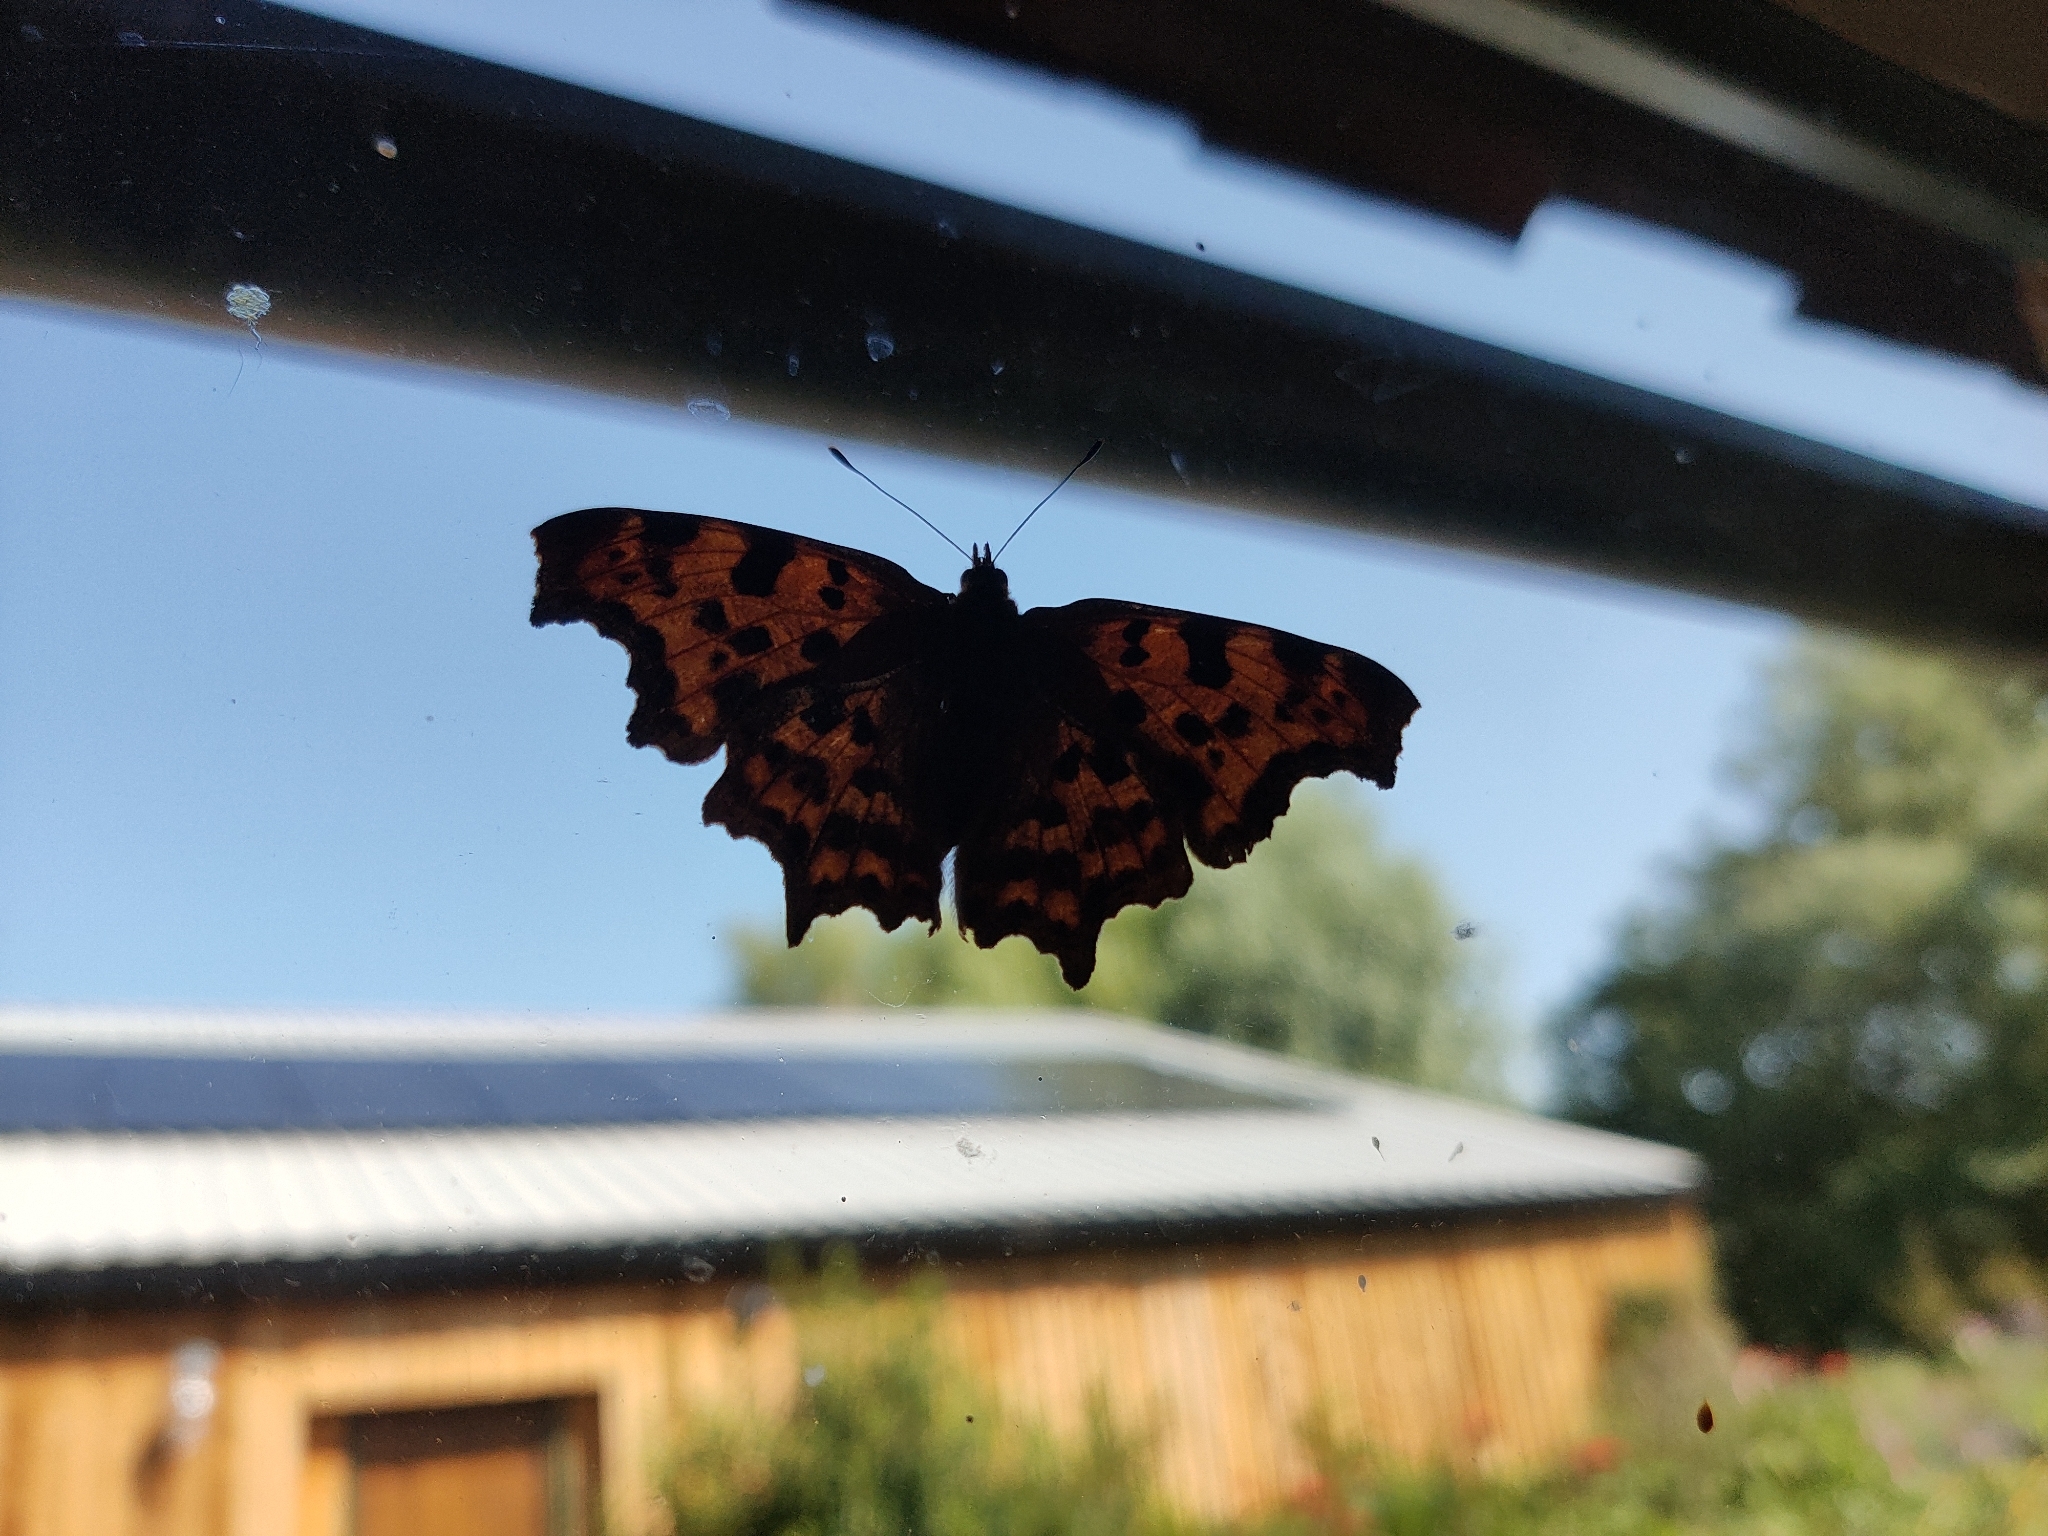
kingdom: Animalia
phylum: Arthropoda
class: Insecta
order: Lepidoptera
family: Nymphalidae
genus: Polygonia
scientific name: Polygonia c-album
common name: Comma
